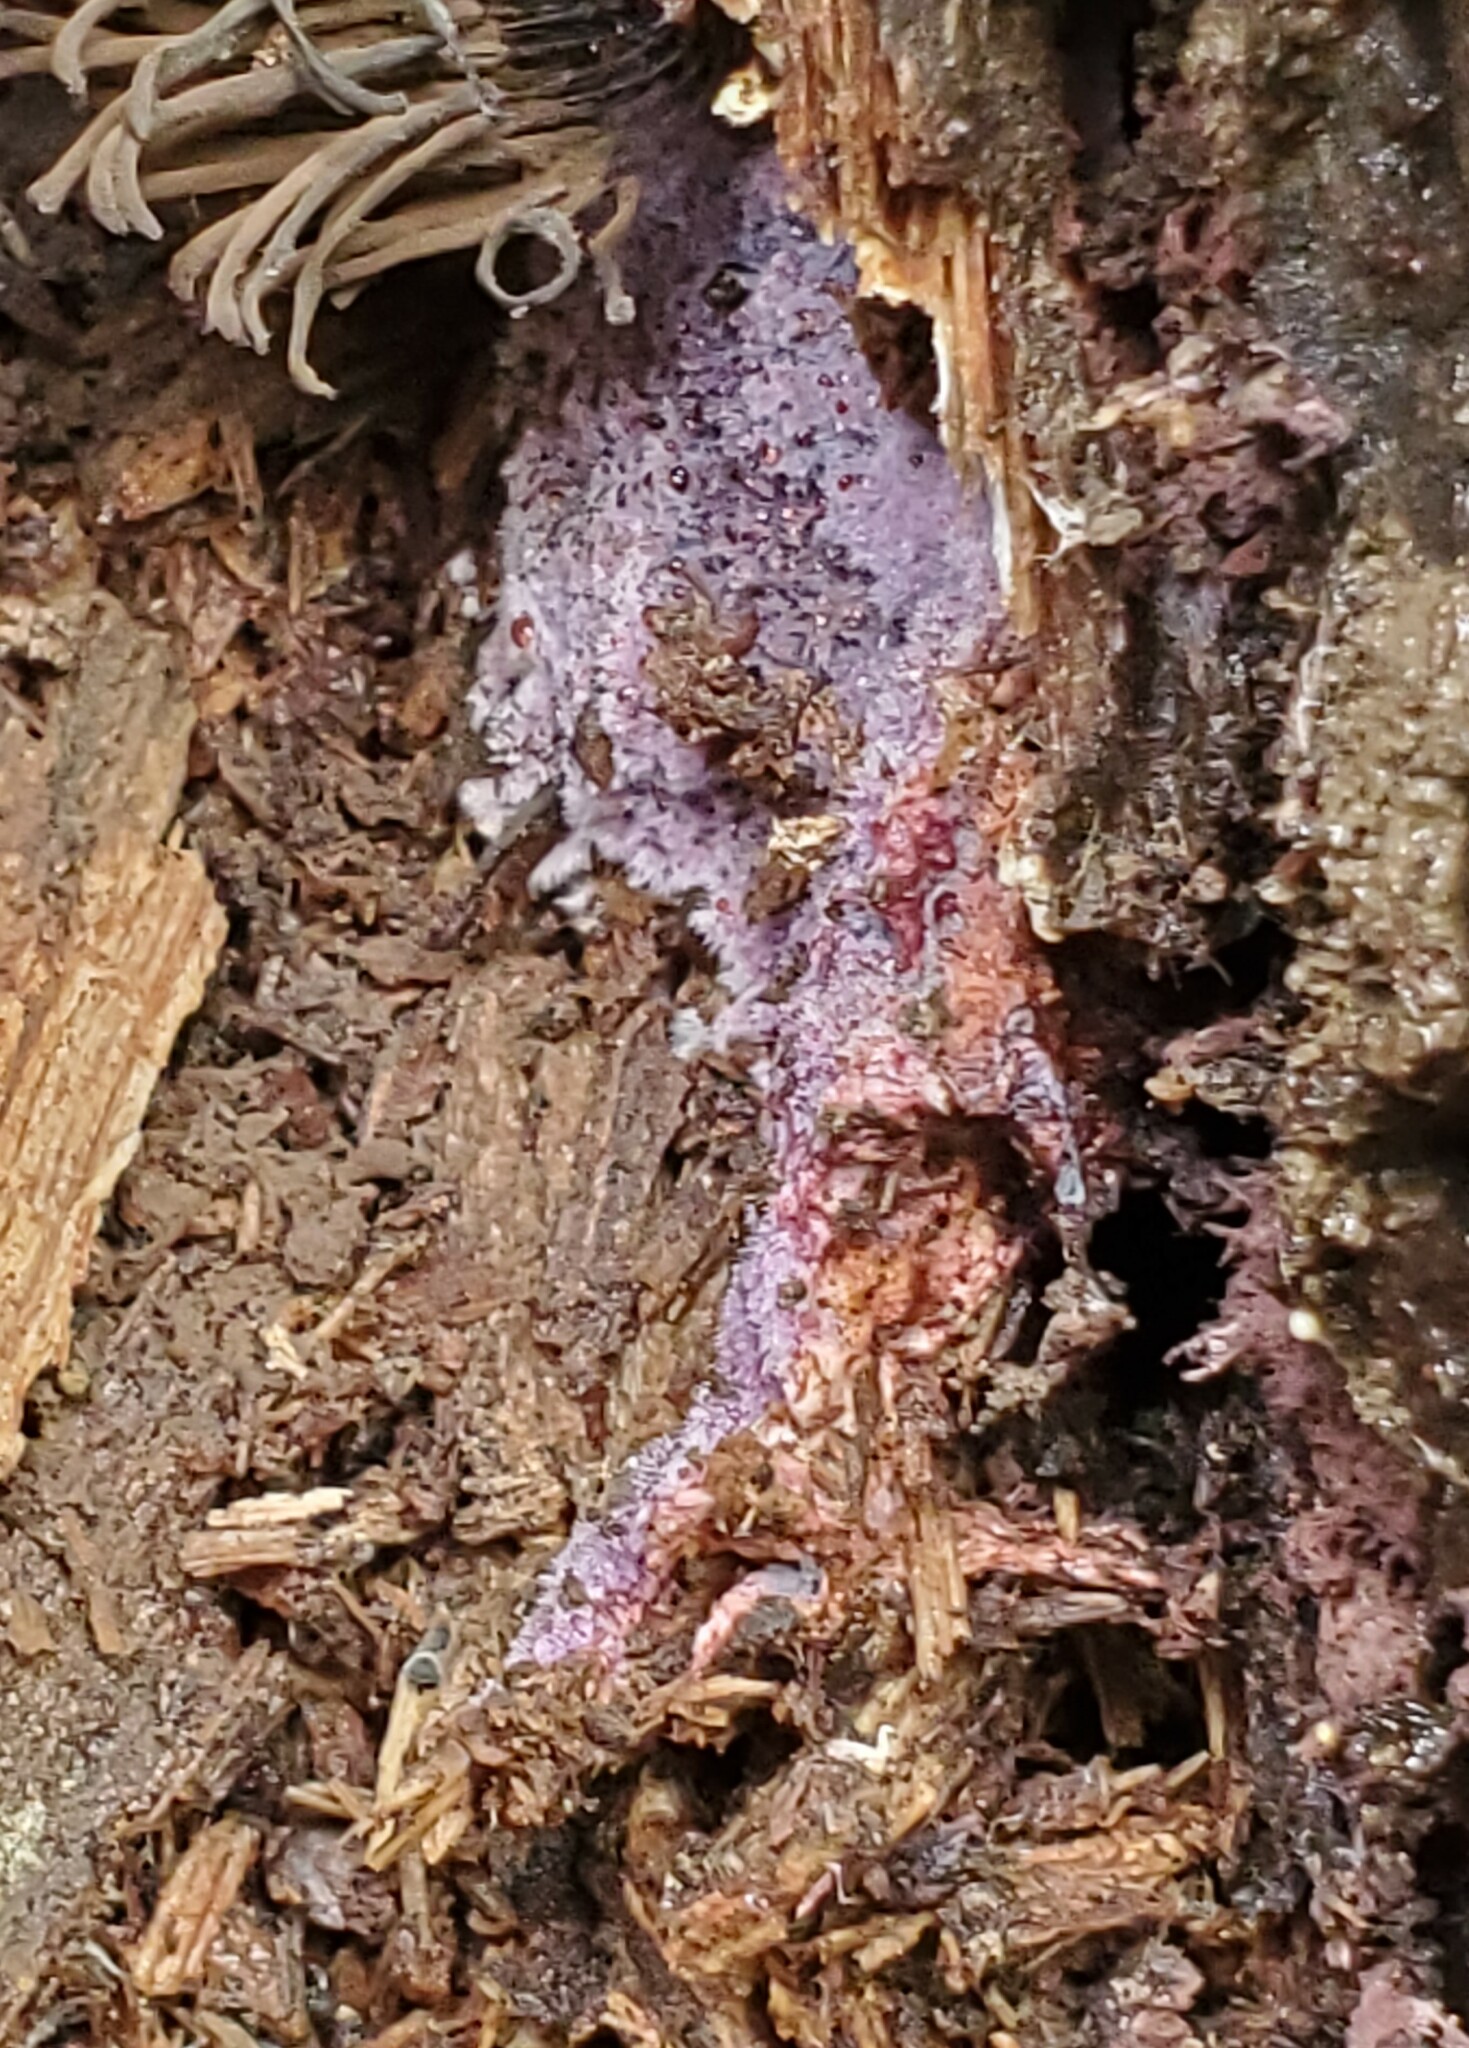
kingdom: Fungi
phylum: Basidiomycota
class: Agaricomycetes
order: Corticiales
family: Punctulariaceae
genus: Punctularia
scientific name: Punctularia atropurpurascens
